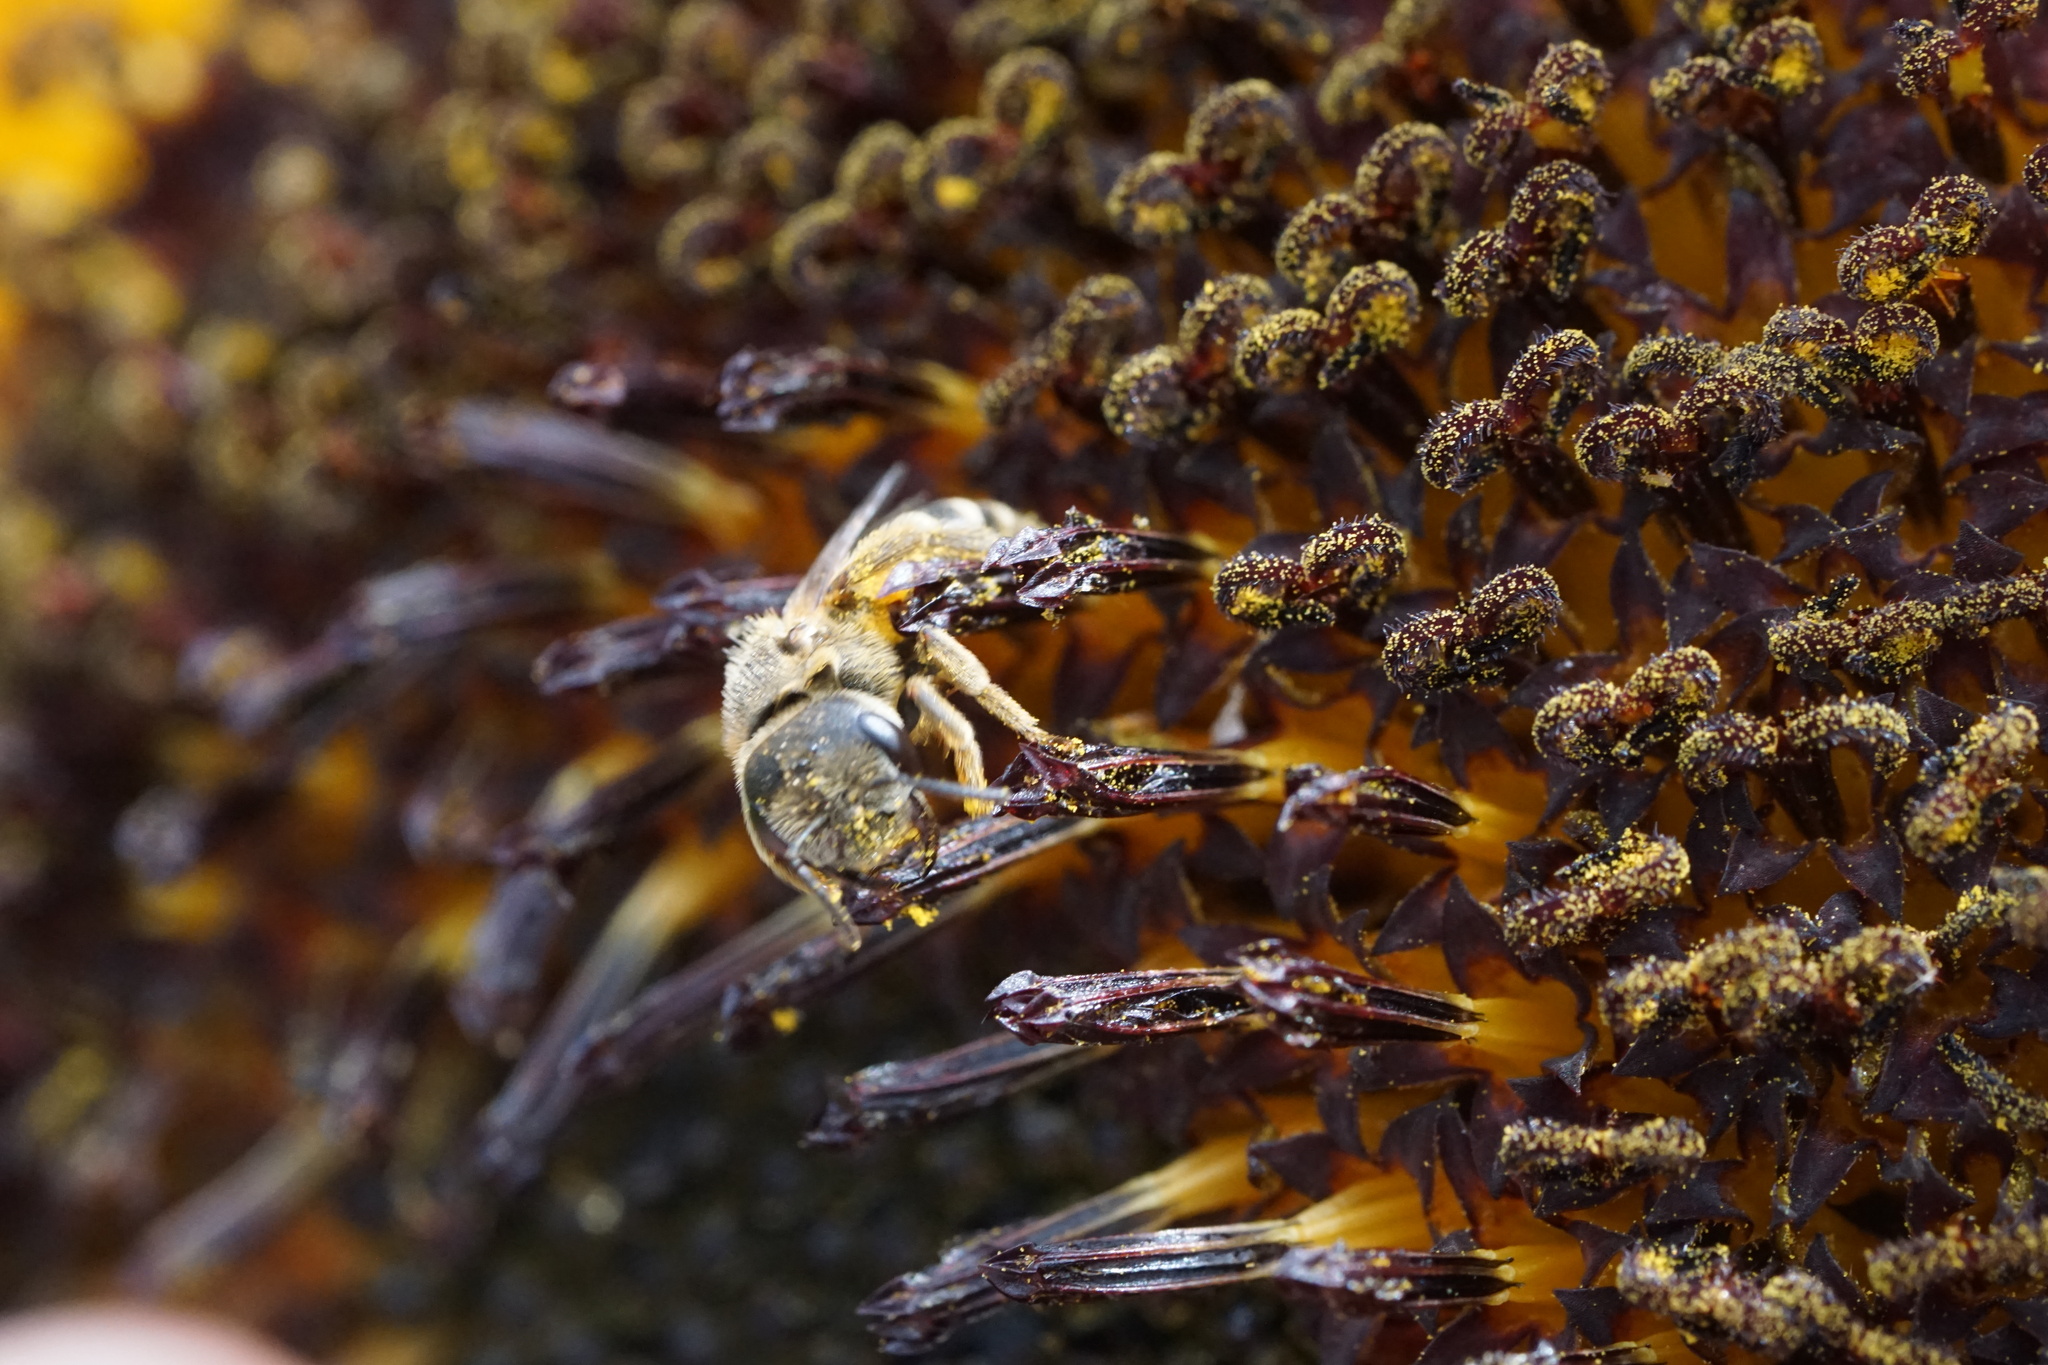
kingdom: Animalia
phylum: Arthropoda
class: Insecta
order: Hymenoptera
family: Halictidae
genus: Halictus
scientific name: Halictus ligatus
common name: Ligated furrow bee
